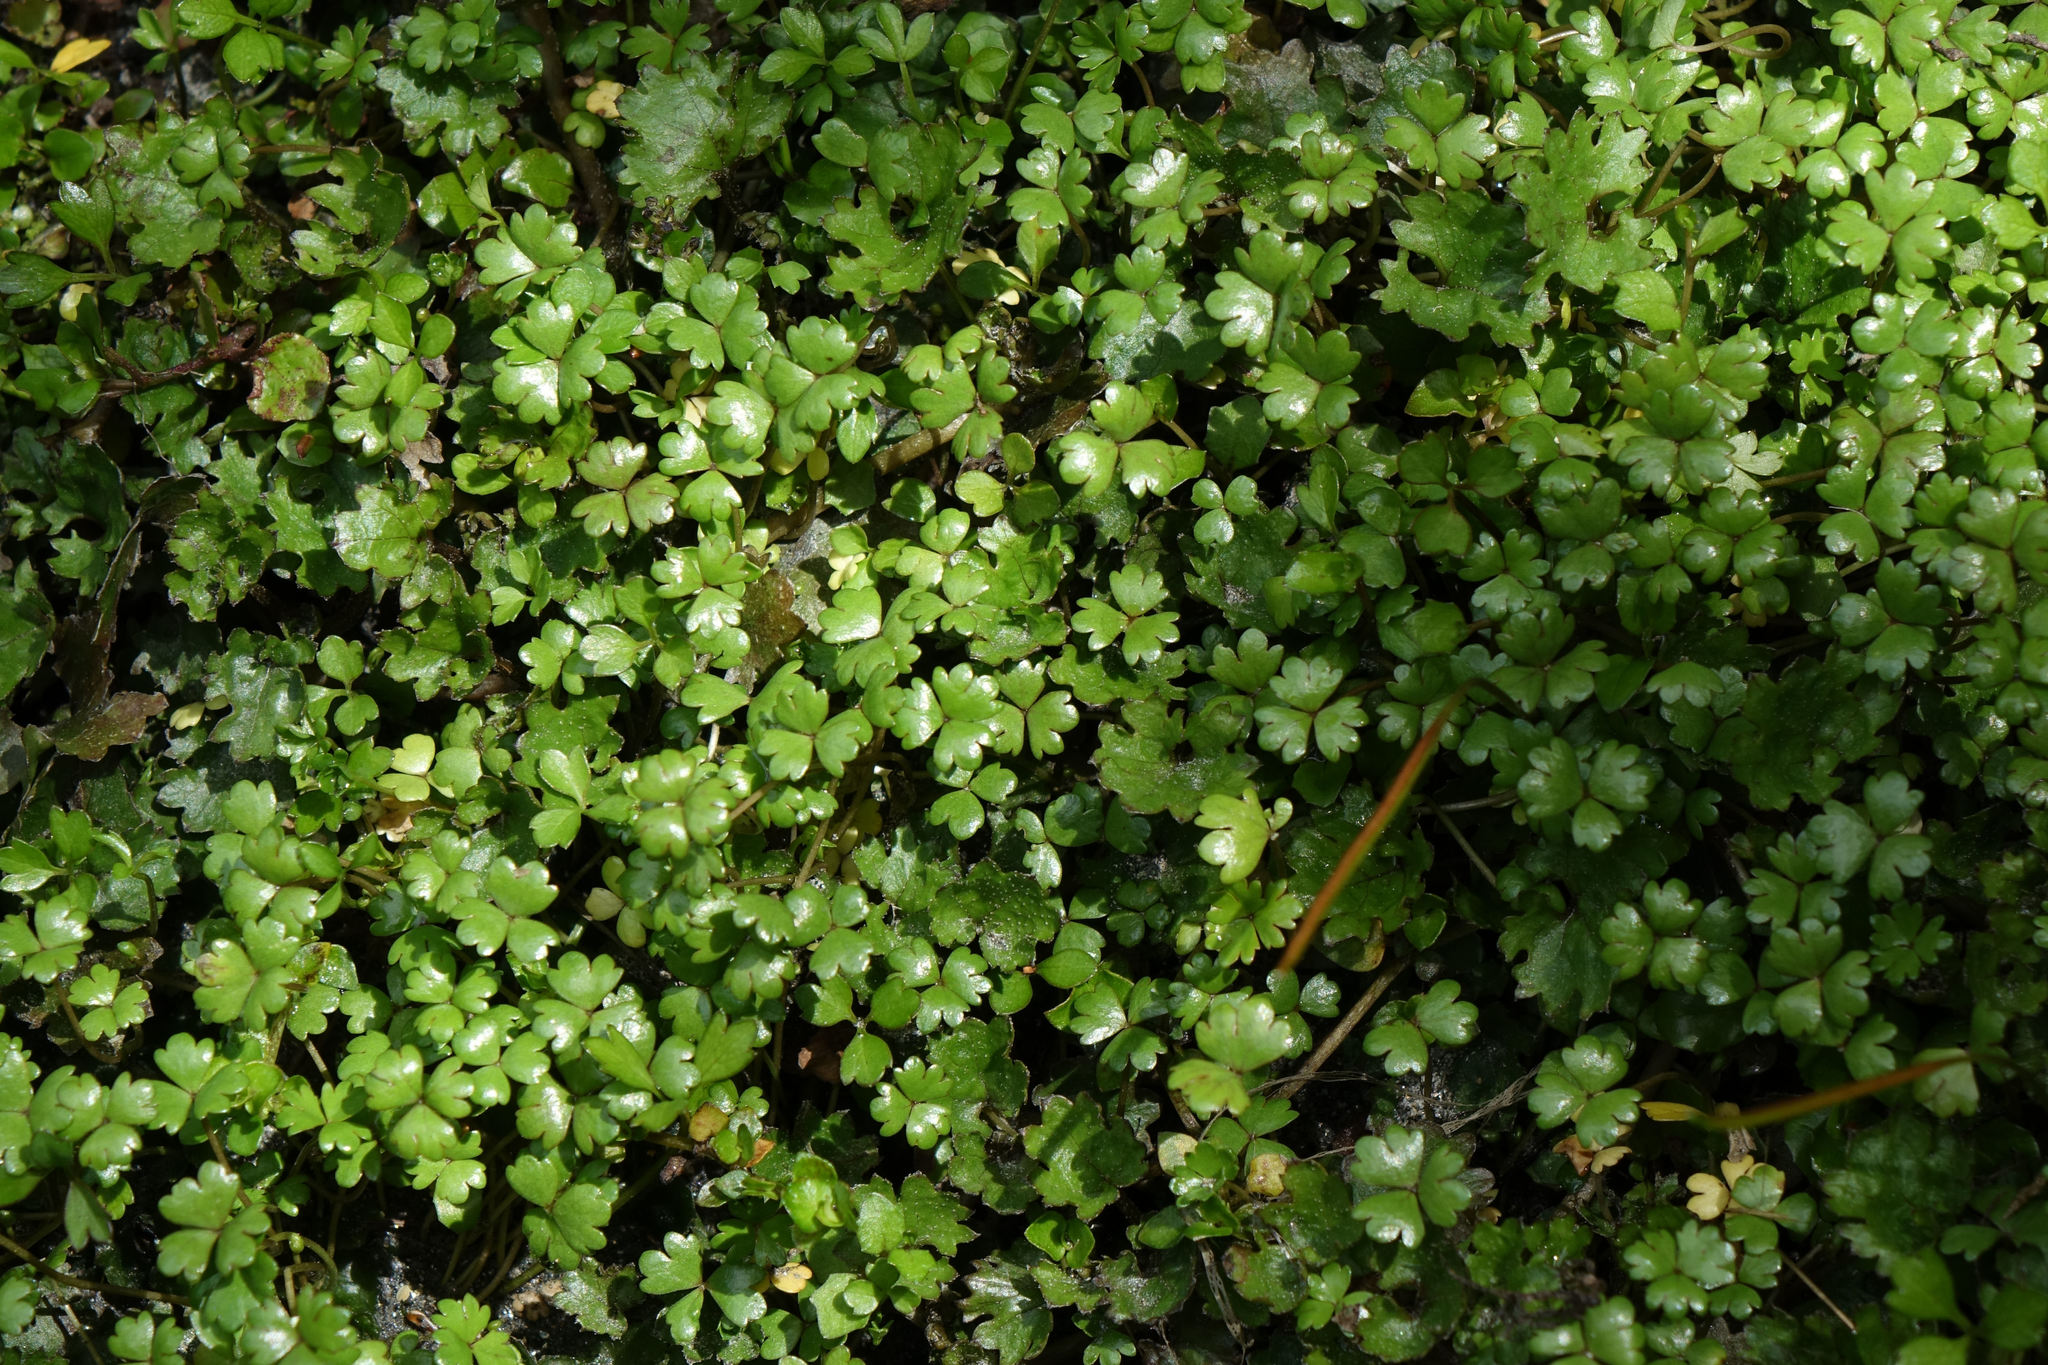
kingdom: Plantae
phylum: Tracheophyta
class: Magnoliopsida
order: Apiales
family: Araliaceae
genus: Hydrocotyle
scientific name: Hydrocotyle sulcata
